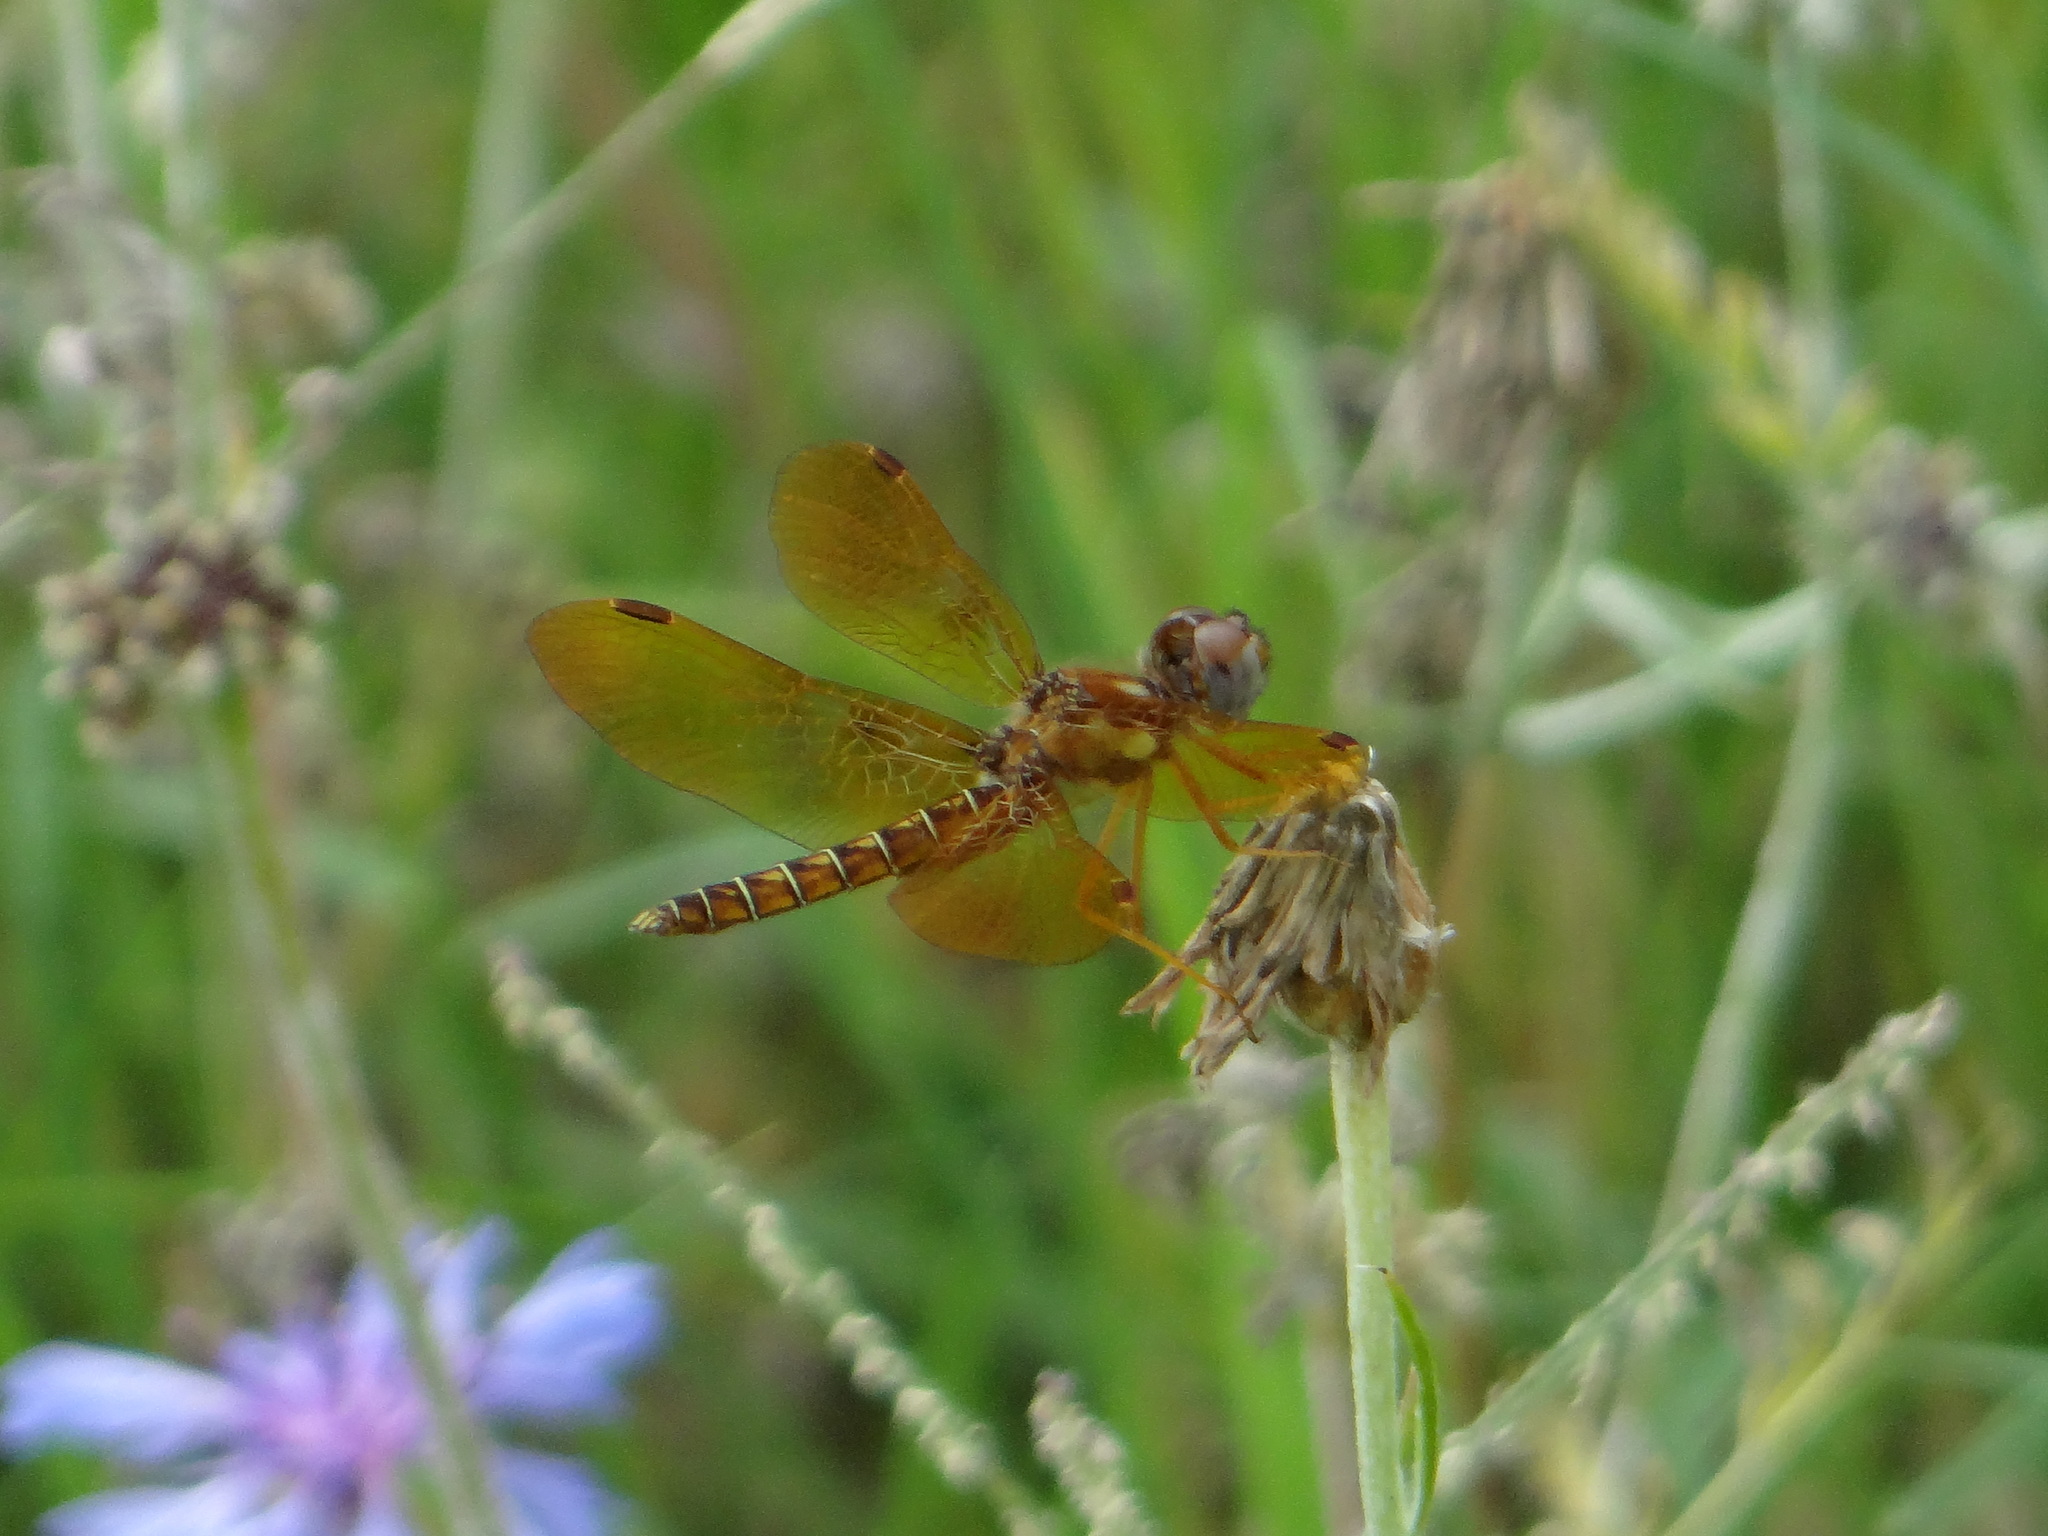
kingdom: Animalia
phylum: Arthropoda
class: Insecta
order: Odonata
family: Libellulidae
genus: Perithemis
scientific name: Perithemis tenera
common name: Eastern amberwing
